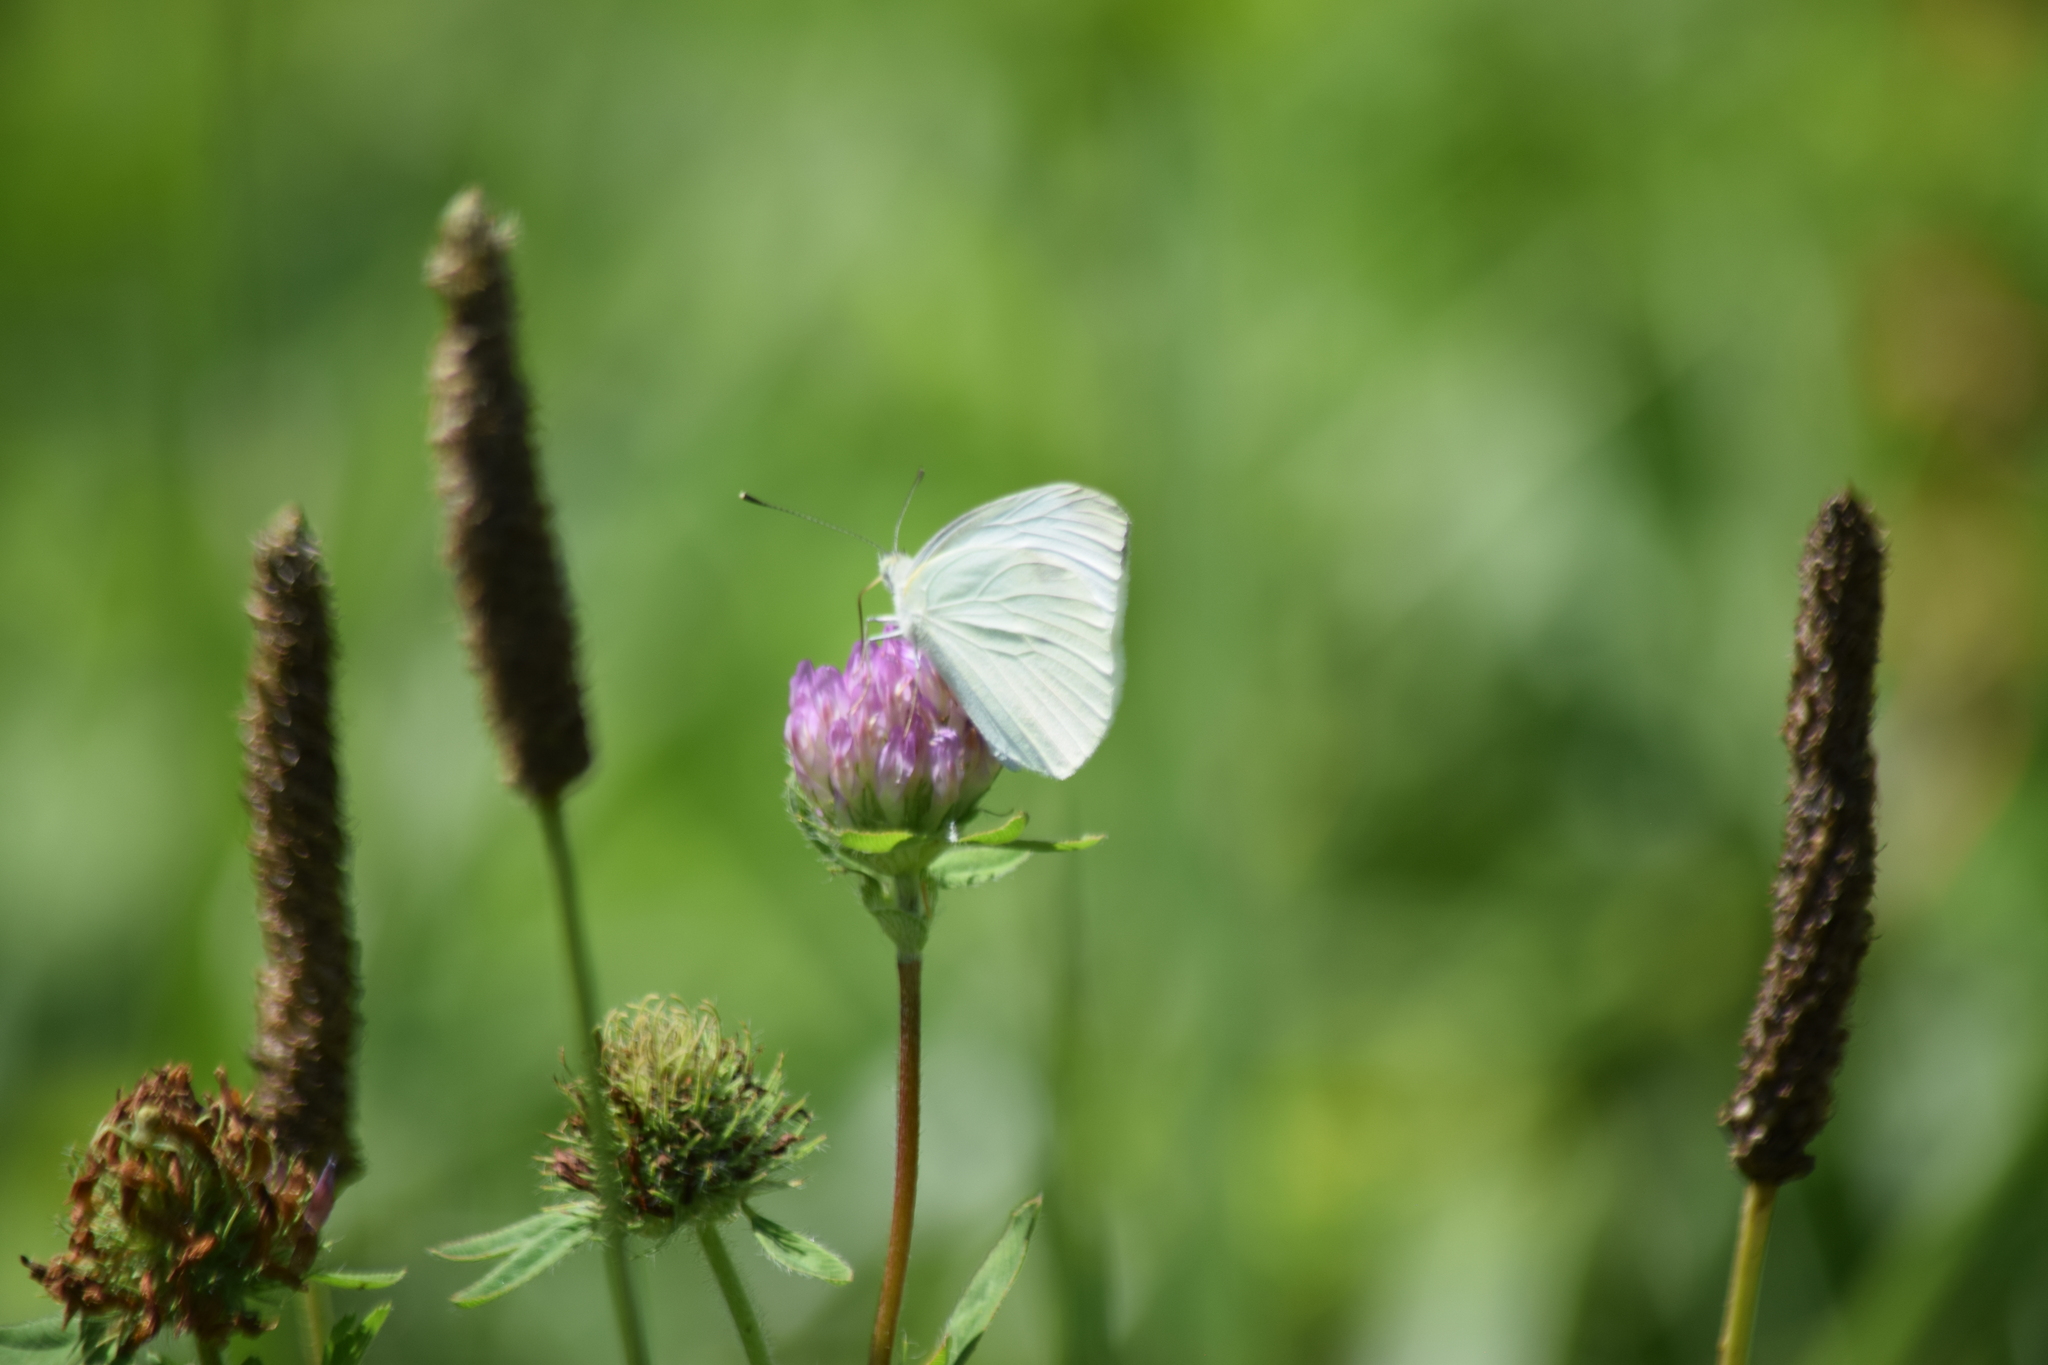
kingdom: Animalia
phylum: Arthropoda
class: Insecta
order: Lepidoptera
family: Pieridae
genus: Pieris
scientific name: Pieris rapae
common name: Small white
